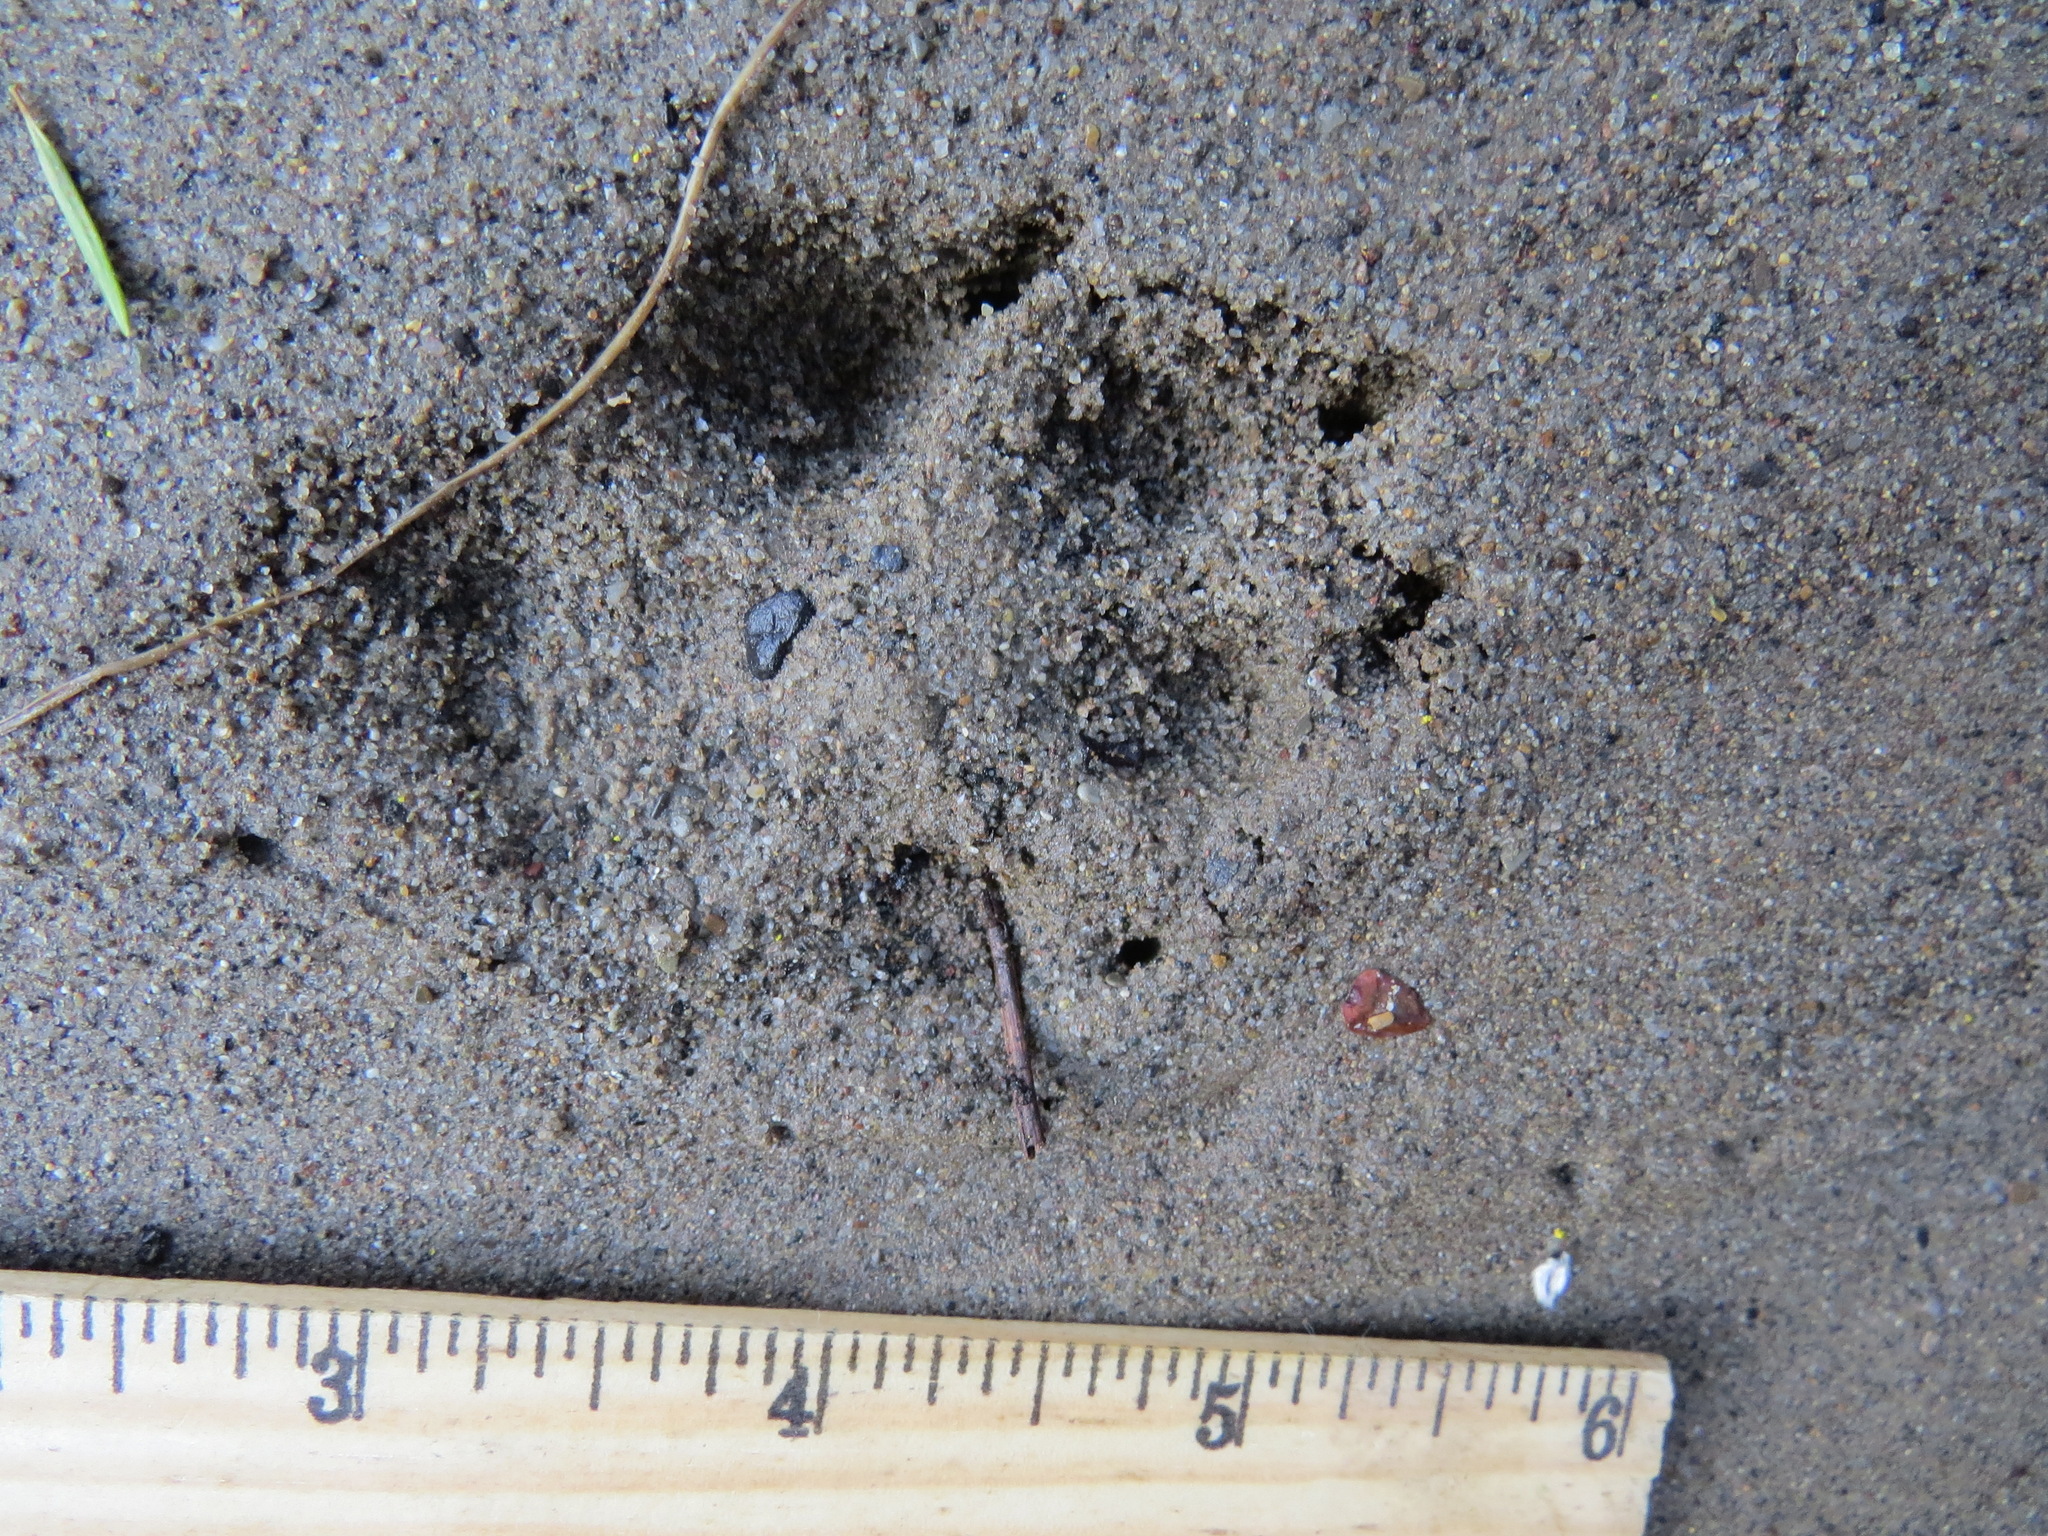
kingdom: Animalia
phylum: Chordata
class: Mammalia
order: Carnivora
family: Canidae
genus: Urocyon
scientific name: Urocyon cinereoargenteus
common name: Gray fox
